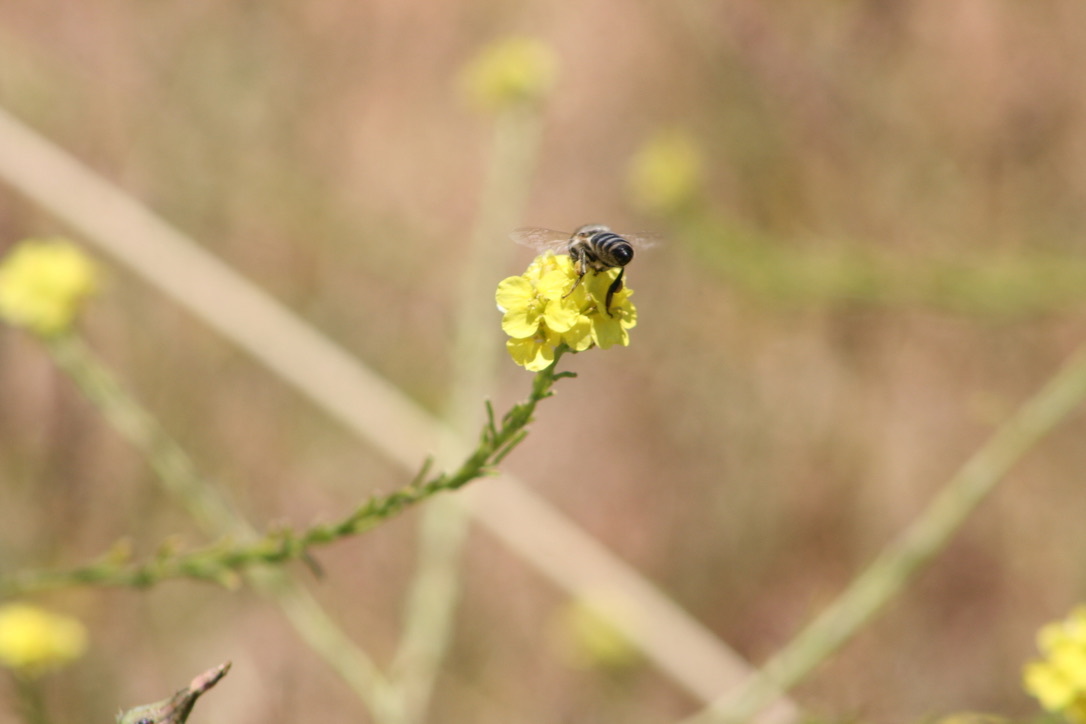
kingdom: Animalia
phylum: Arthropoda
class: Insecta
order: Hymenoptera
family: Apidae
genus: Apis
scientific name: Apis mellifera
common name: Honey bee
